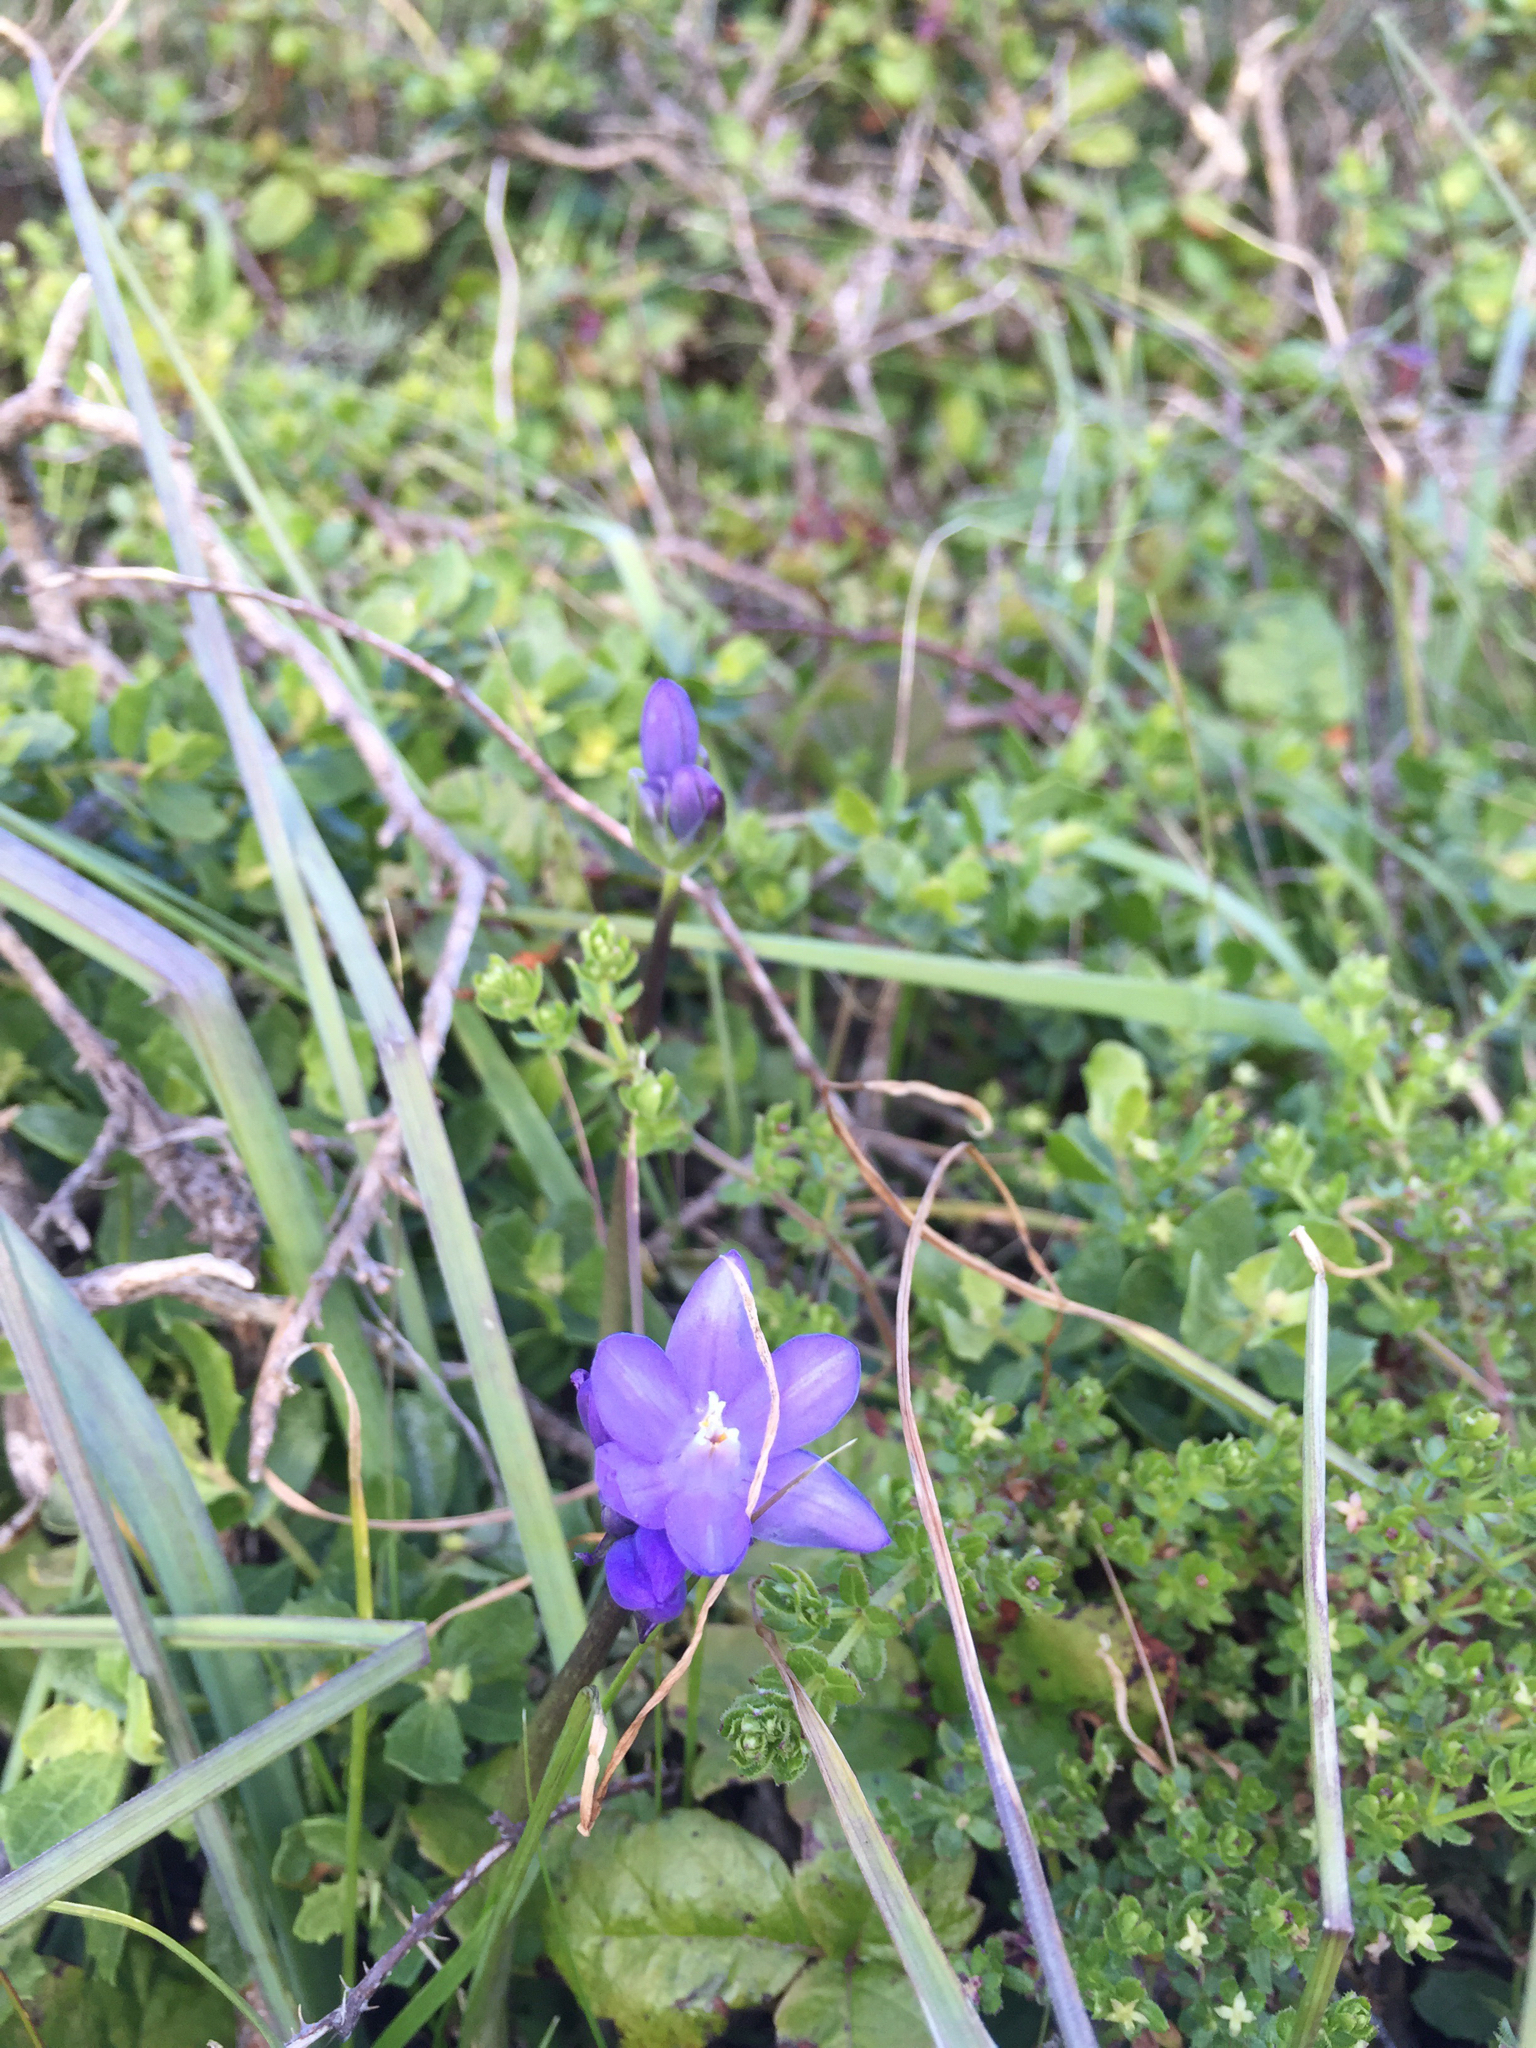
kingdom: Plantae
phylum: Tracheophyta
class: Liliopsida
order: Asparagales
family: Asparagaceae
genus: Dipterostemon
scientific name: Dipterostemon capitatus
